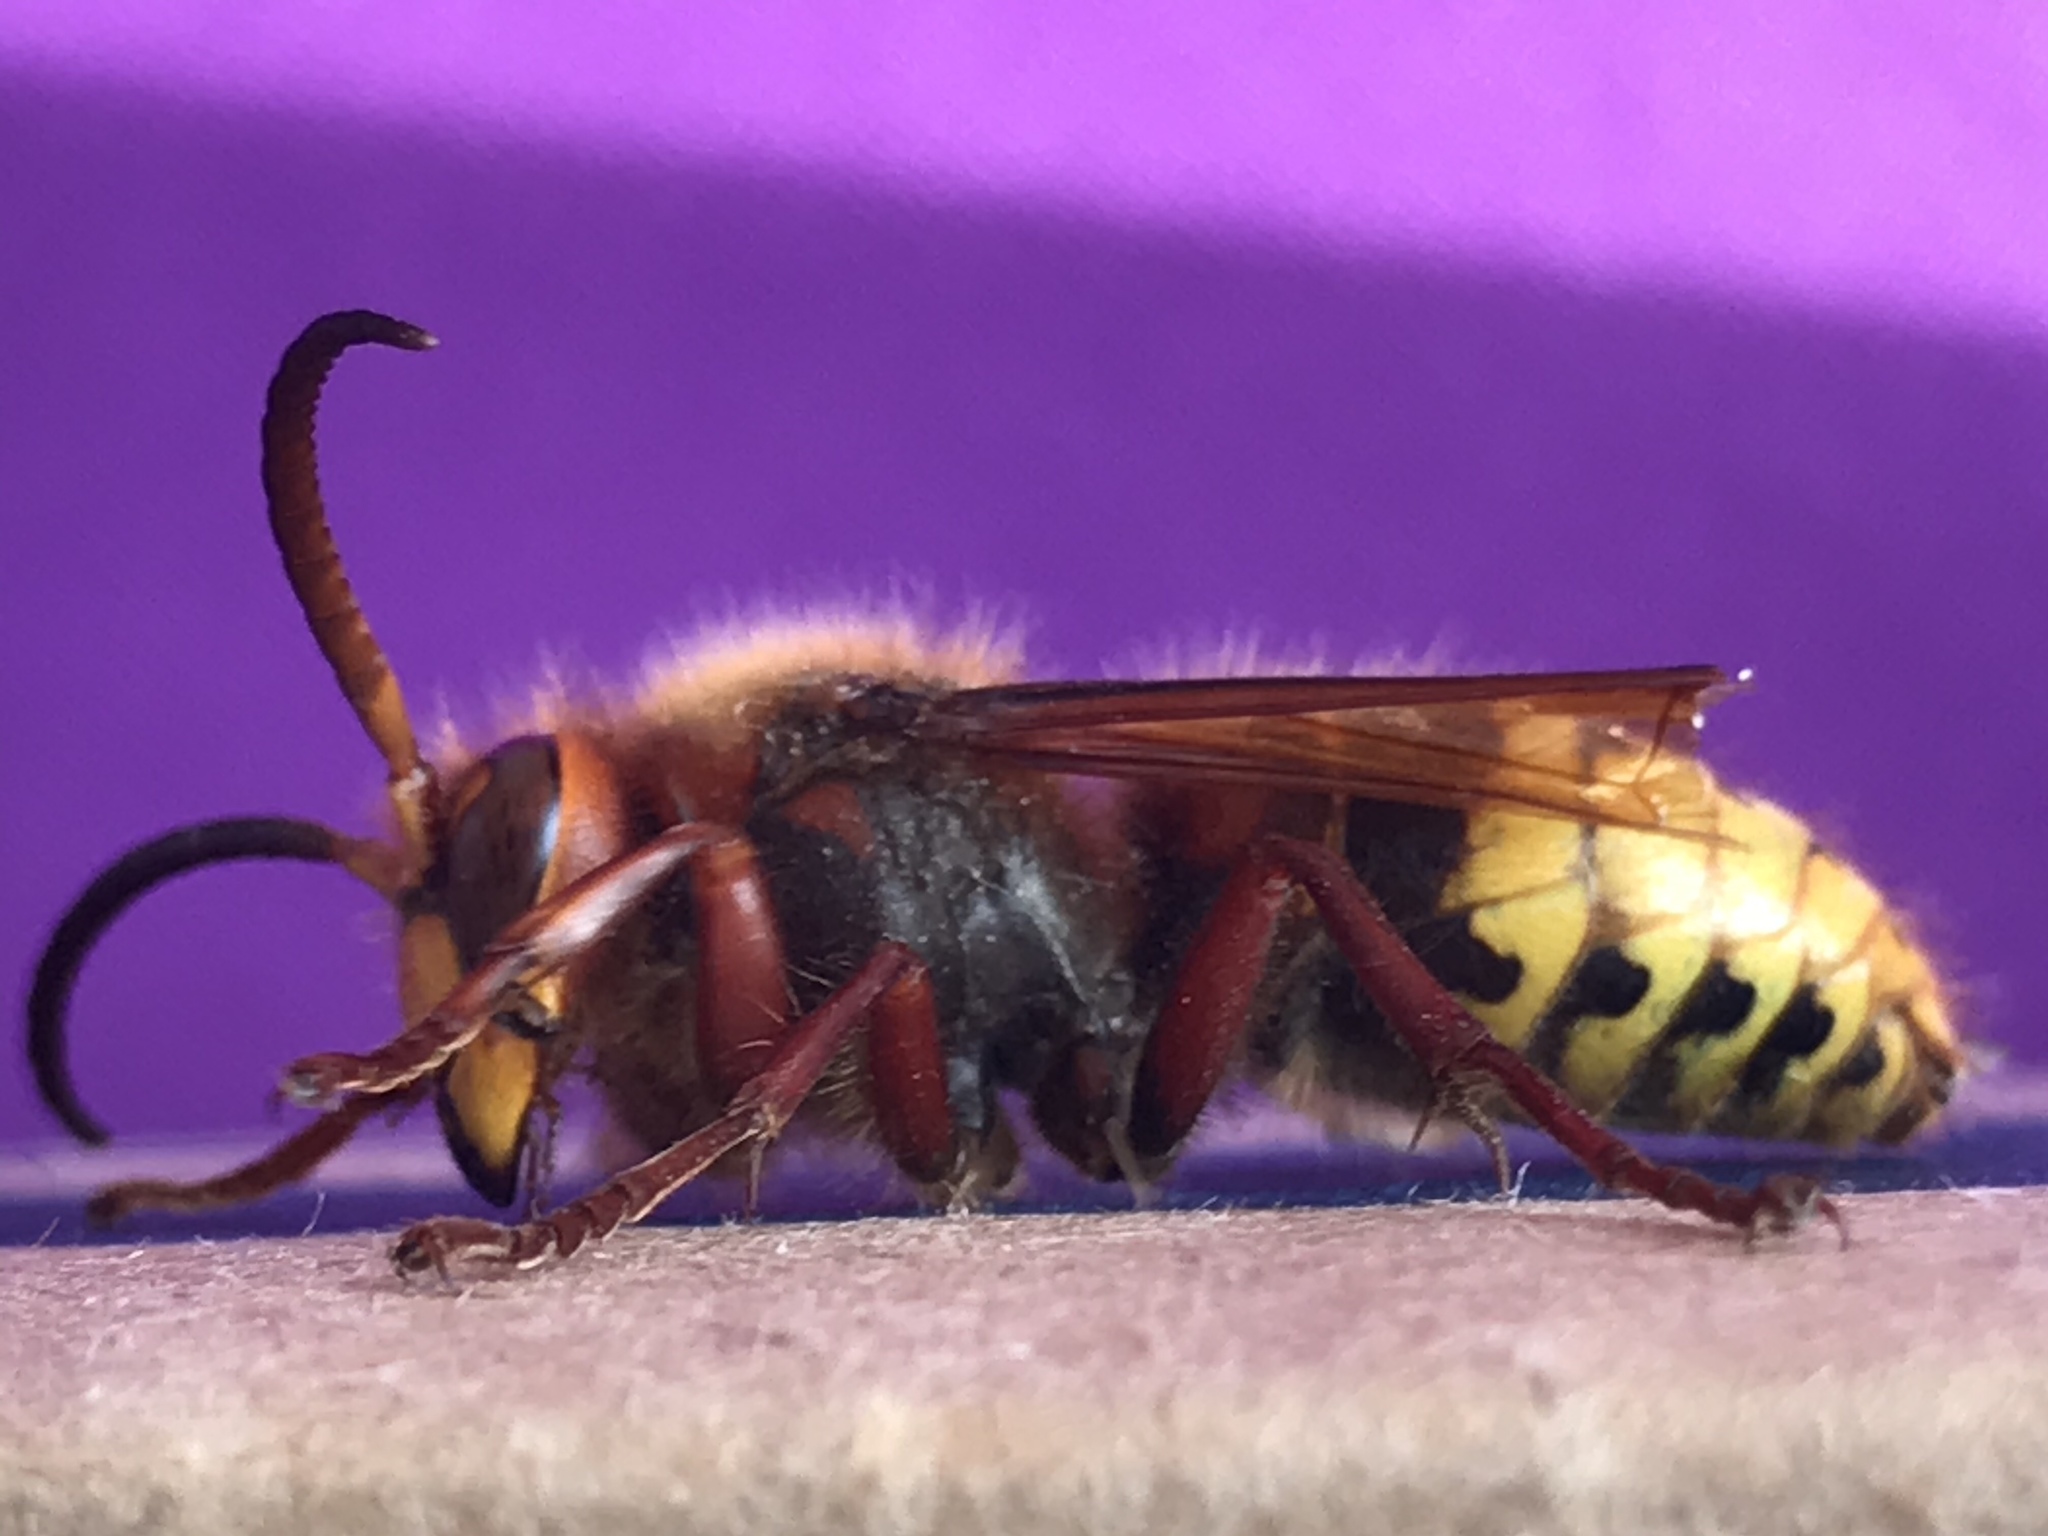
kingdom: Animalia
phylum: Arthropoda
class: Insecta
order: Hymenoptera
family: Vespidae
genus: Vespa
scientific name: Vespa crabro
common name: Hornet
